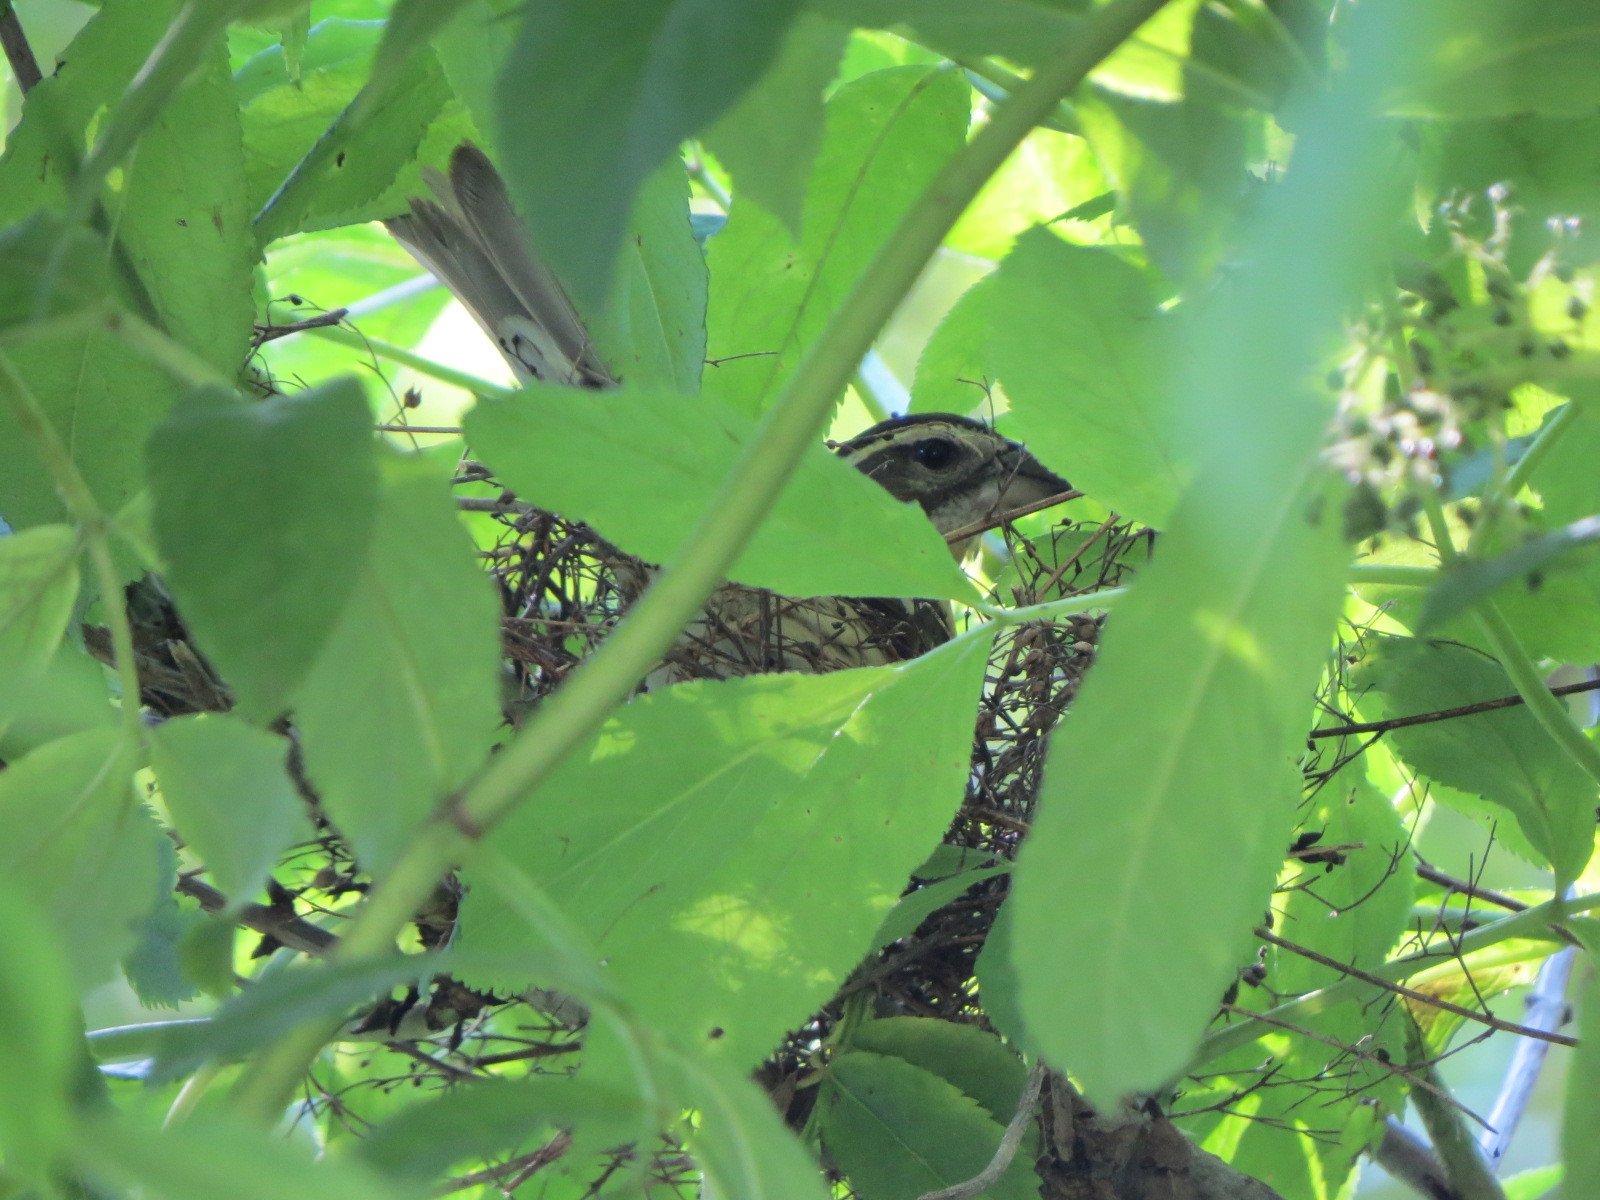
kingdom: Animalia
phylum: Chordata
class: Aves
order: Passeriformes
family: Cardinalidae
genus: Pheucticus
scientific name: Pheucticus melanocephalus
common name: Black-headed grosbeak
